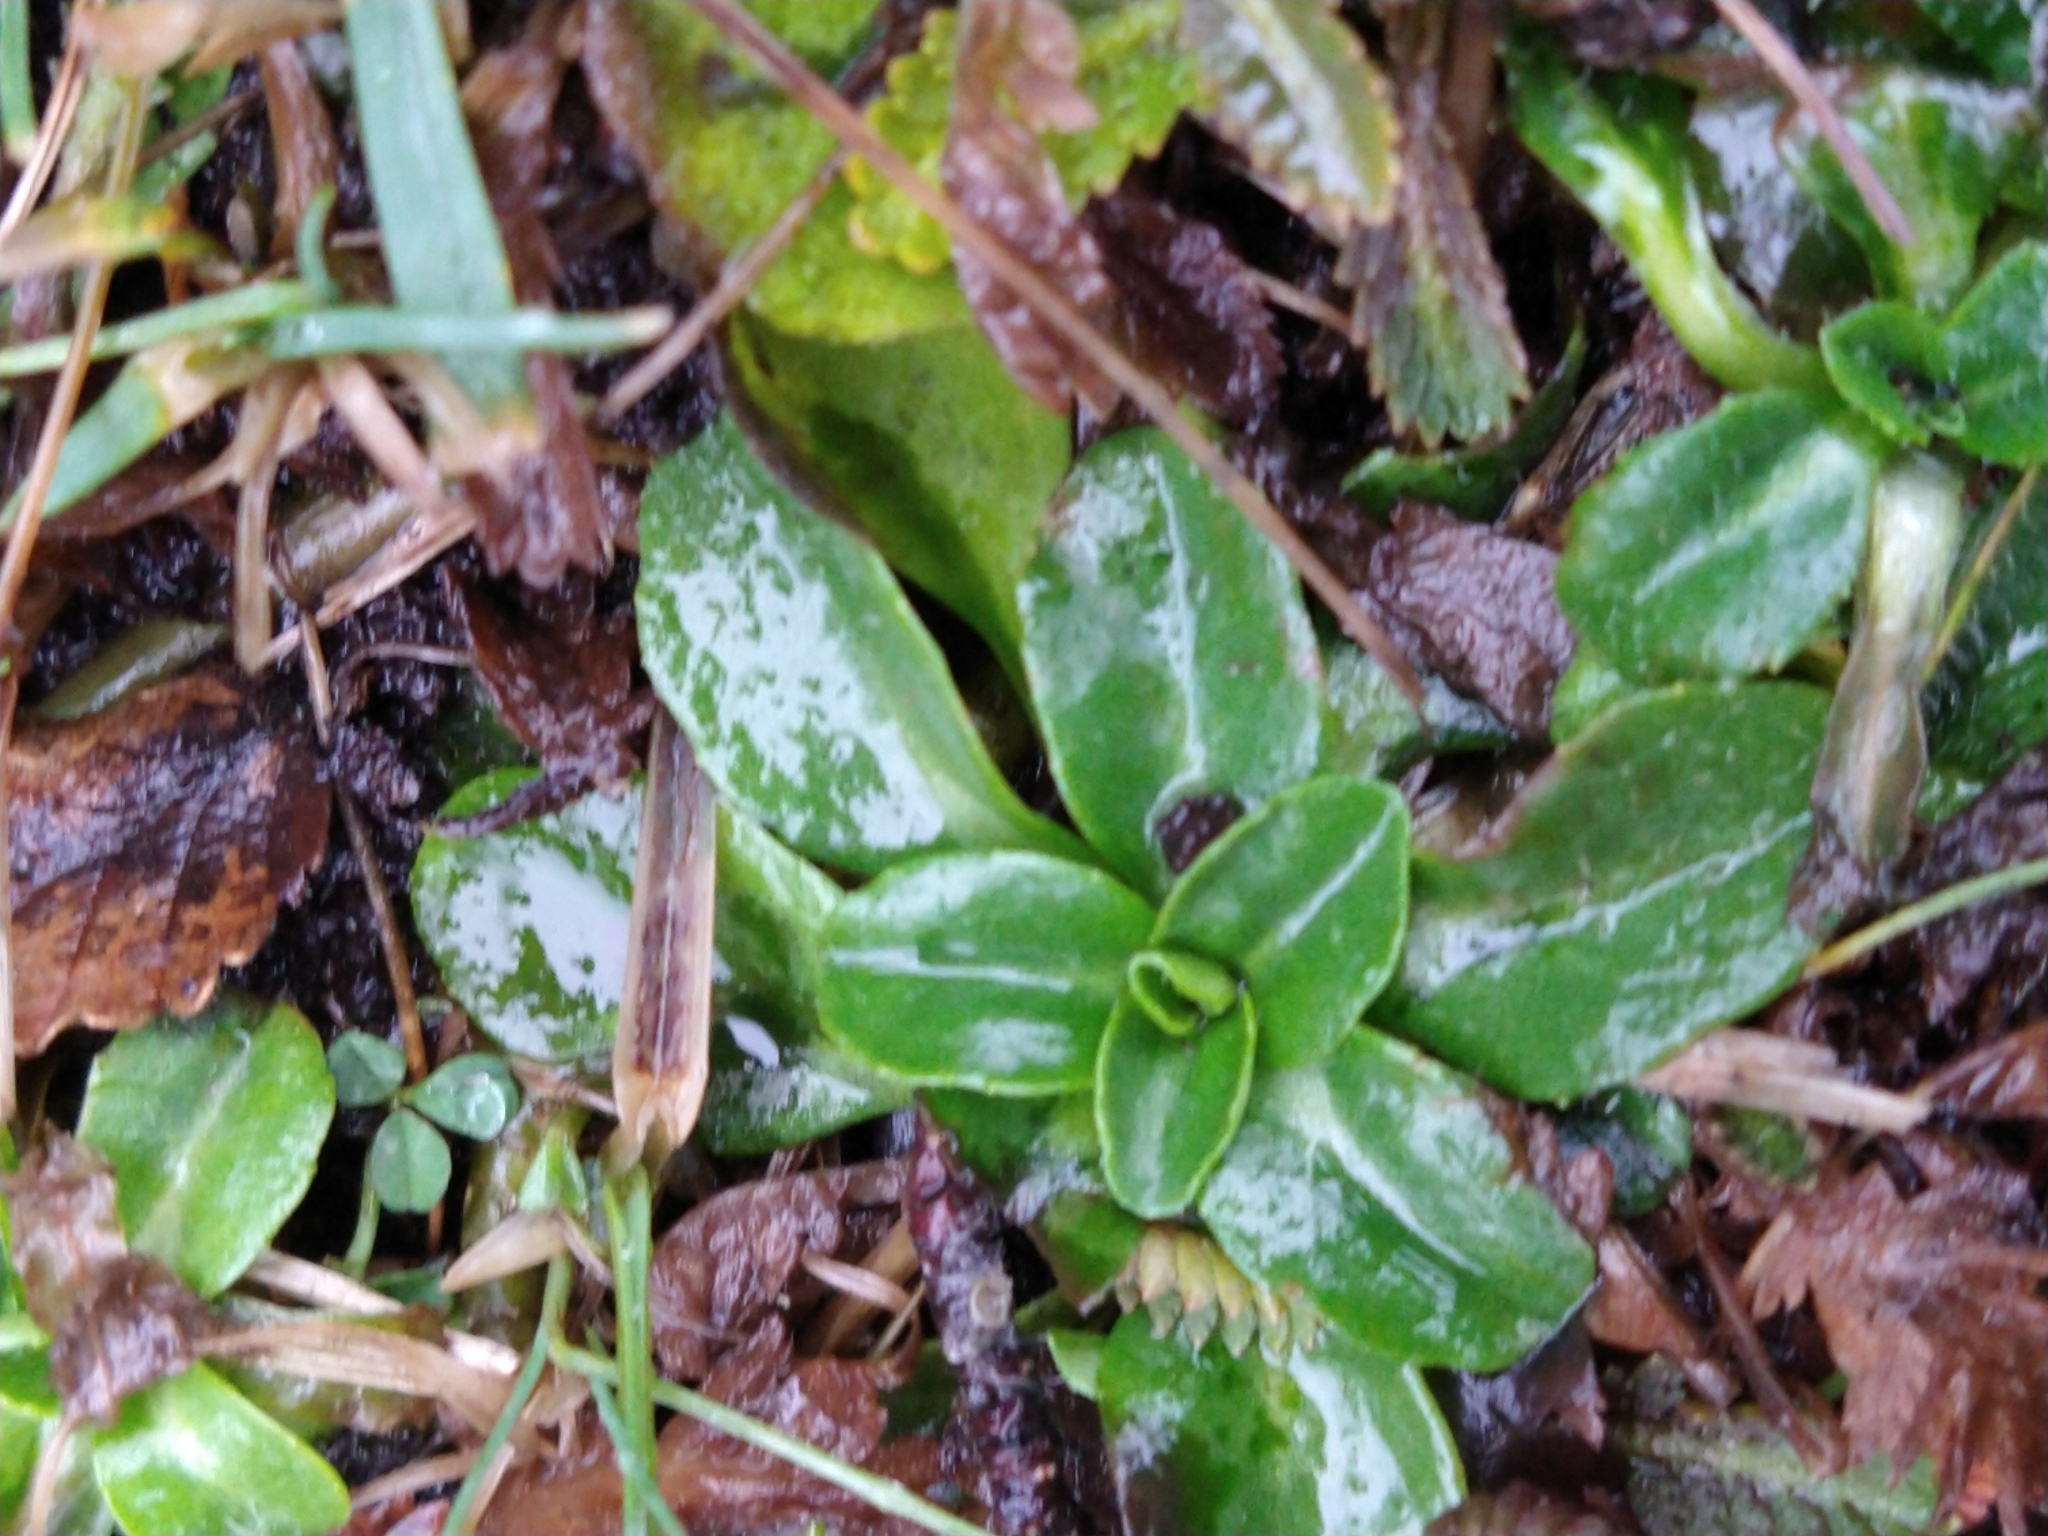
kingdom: Plantae
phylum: Tracheophyta
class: Magnoliopsida
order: Asterales
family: Asteraceae
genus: Bellis
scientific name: Bellis perennis
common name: Lawndaisy
